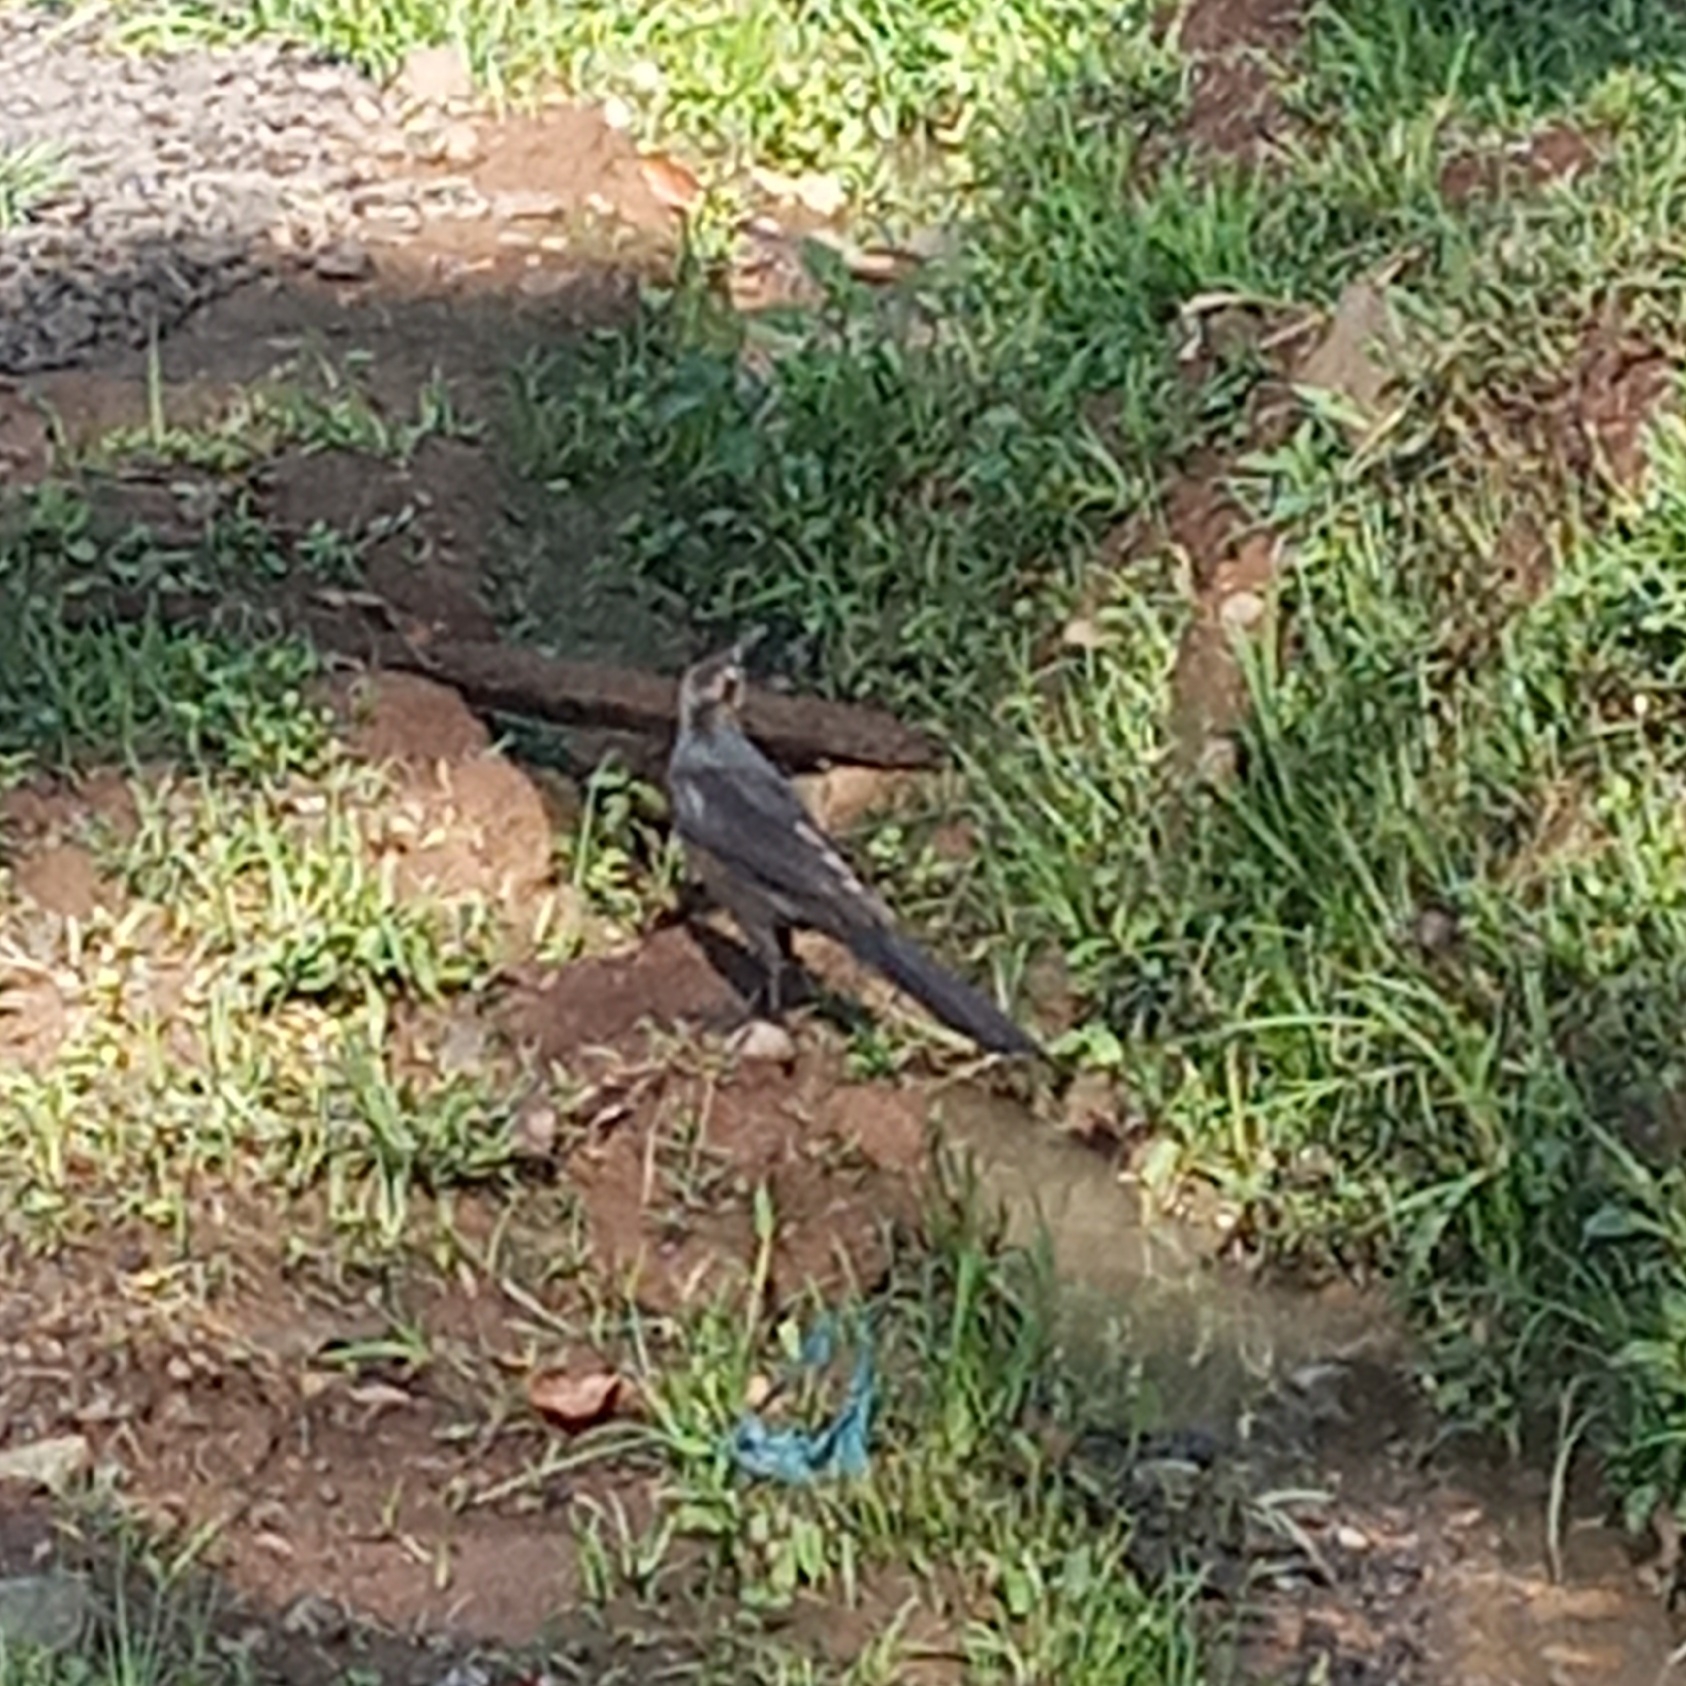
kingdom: Animalia
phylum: Chordata
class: Aves
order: Passeriformes
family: Icteridae
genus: Quiscalus
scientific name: Quiscalus mexicanus
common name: Great-tailed grackle
